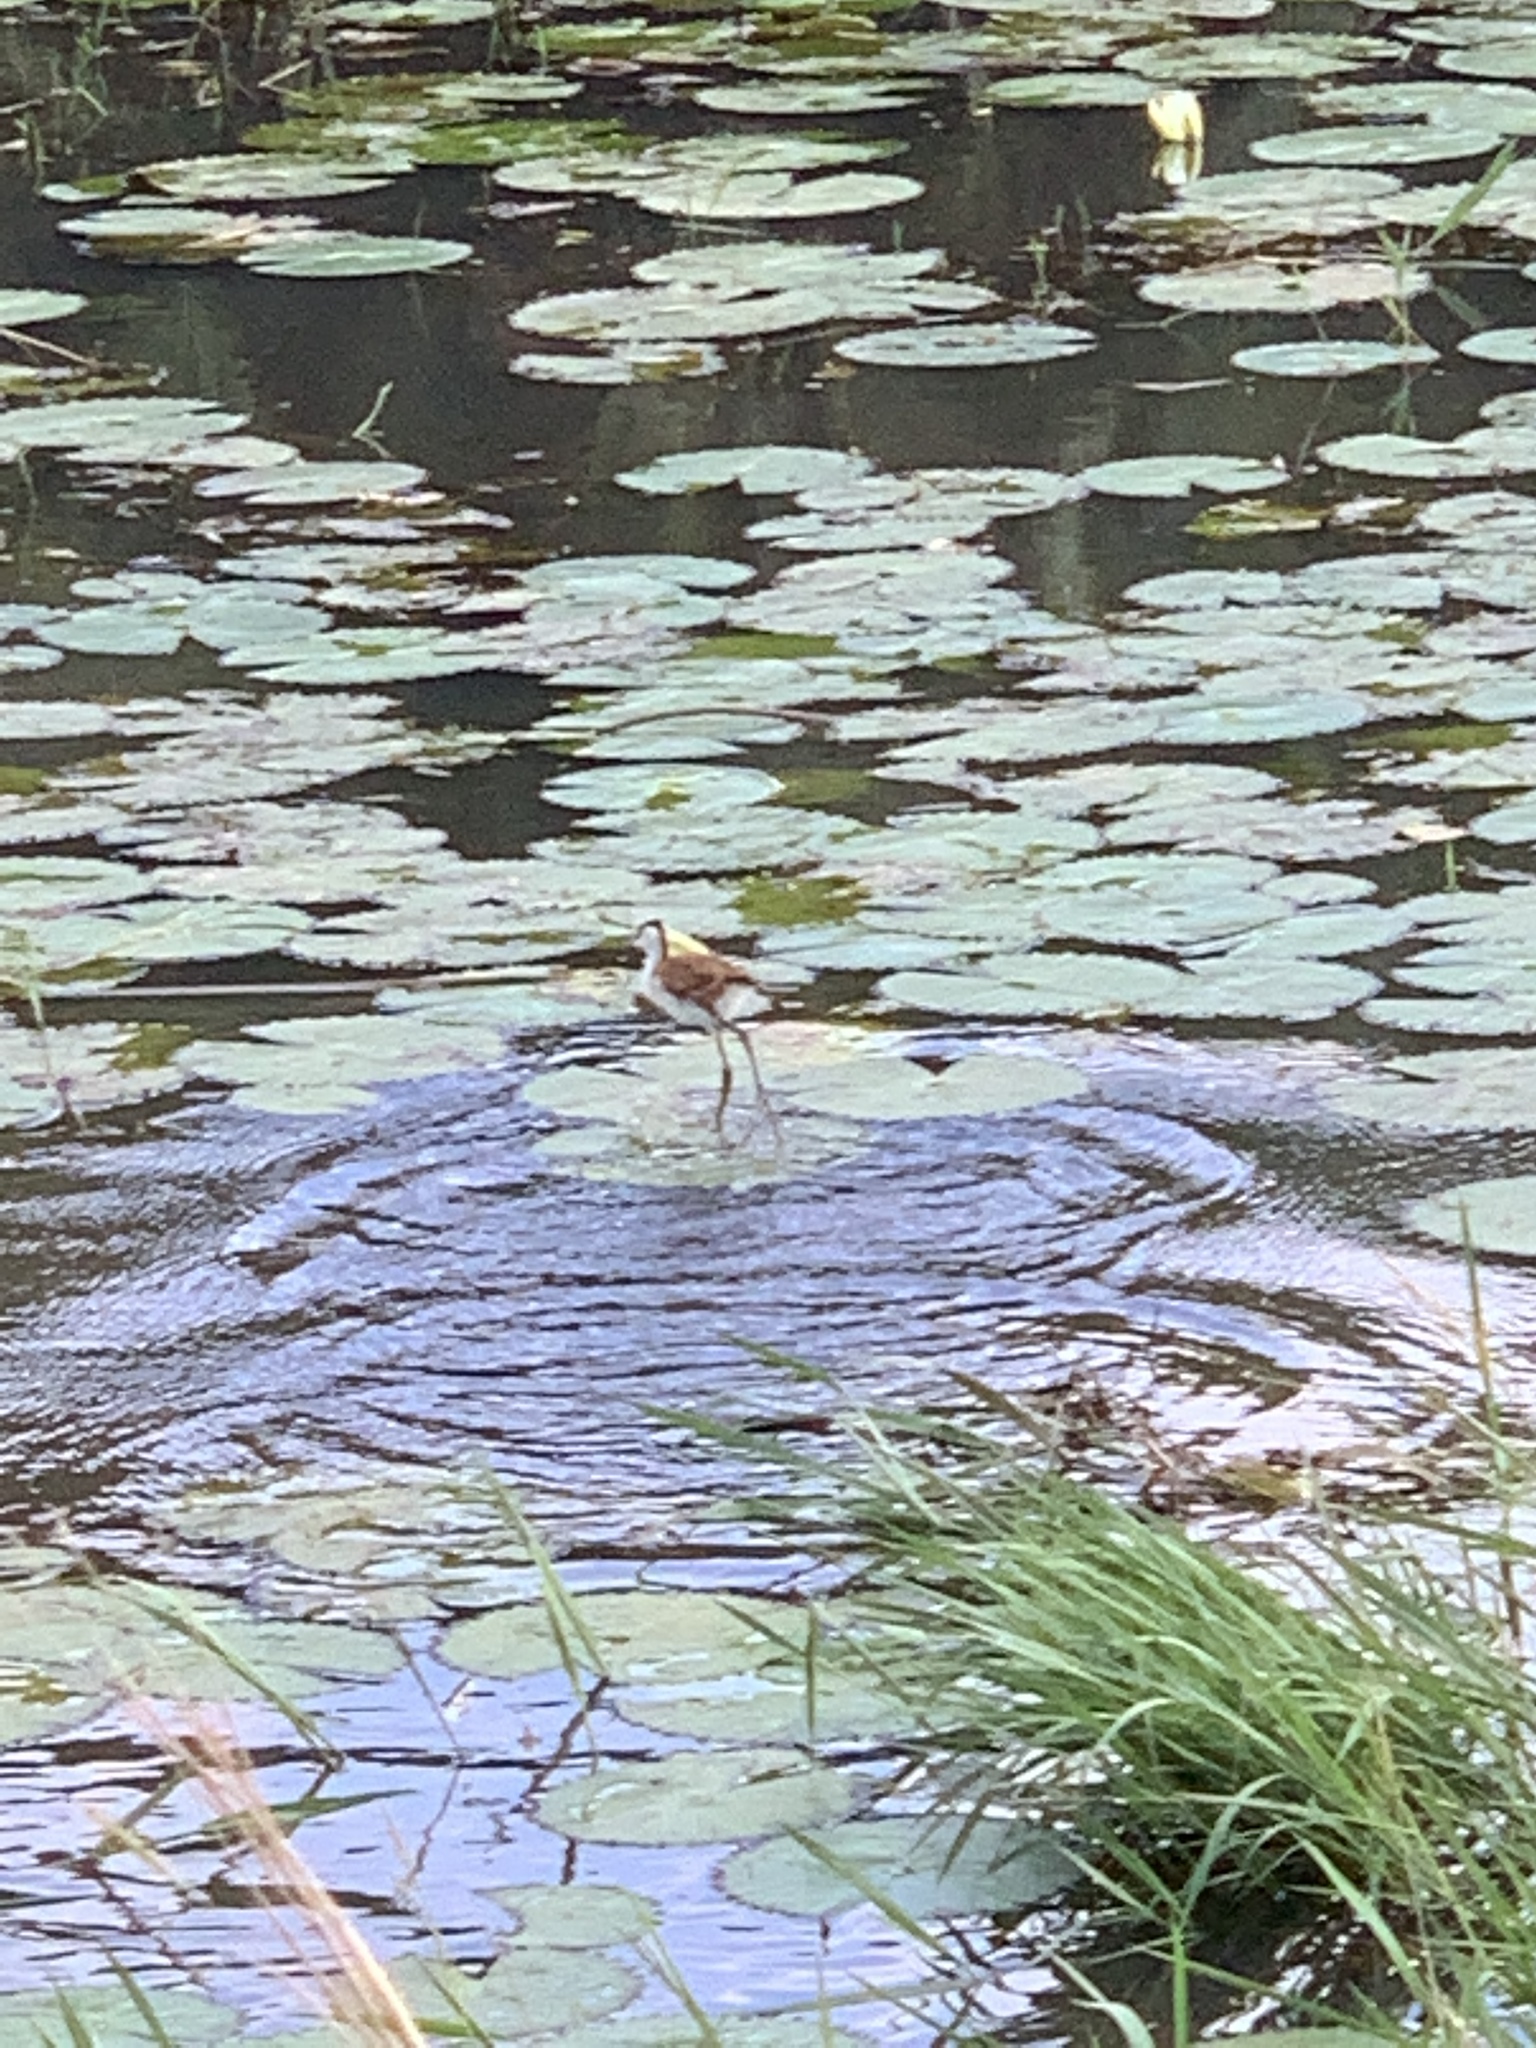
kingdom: Animalia
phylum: Chordata
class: Aves
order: Charadriiformes
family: Jacanidae
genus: Actophilornis
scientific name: Actophilornis africanus
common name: African jacana
